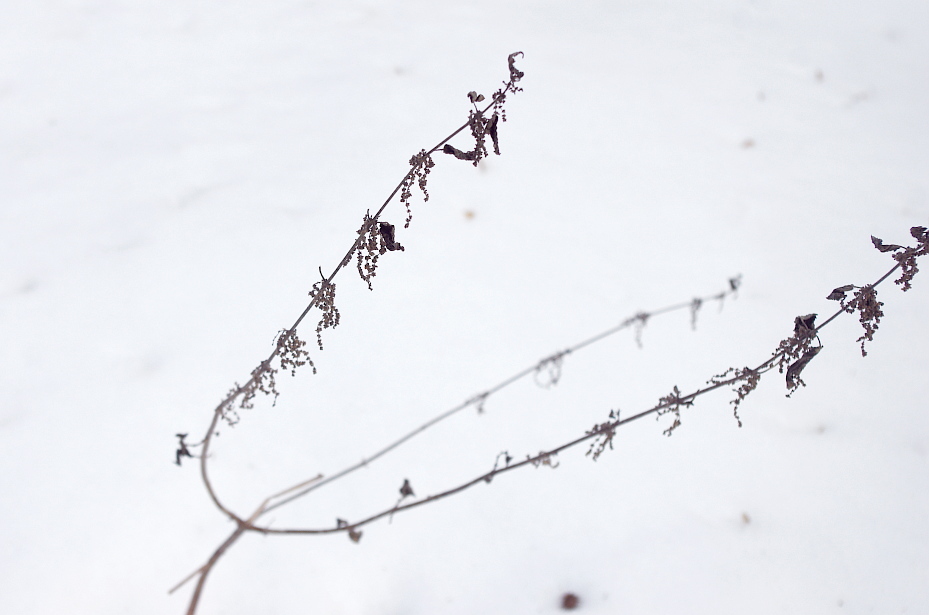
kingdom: Plantae
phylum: Tracheophyta
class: Magnoliopsida
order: Rosales
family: Urticaceae
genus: Urtica
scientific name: Urtica dioica
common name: Common nettle
